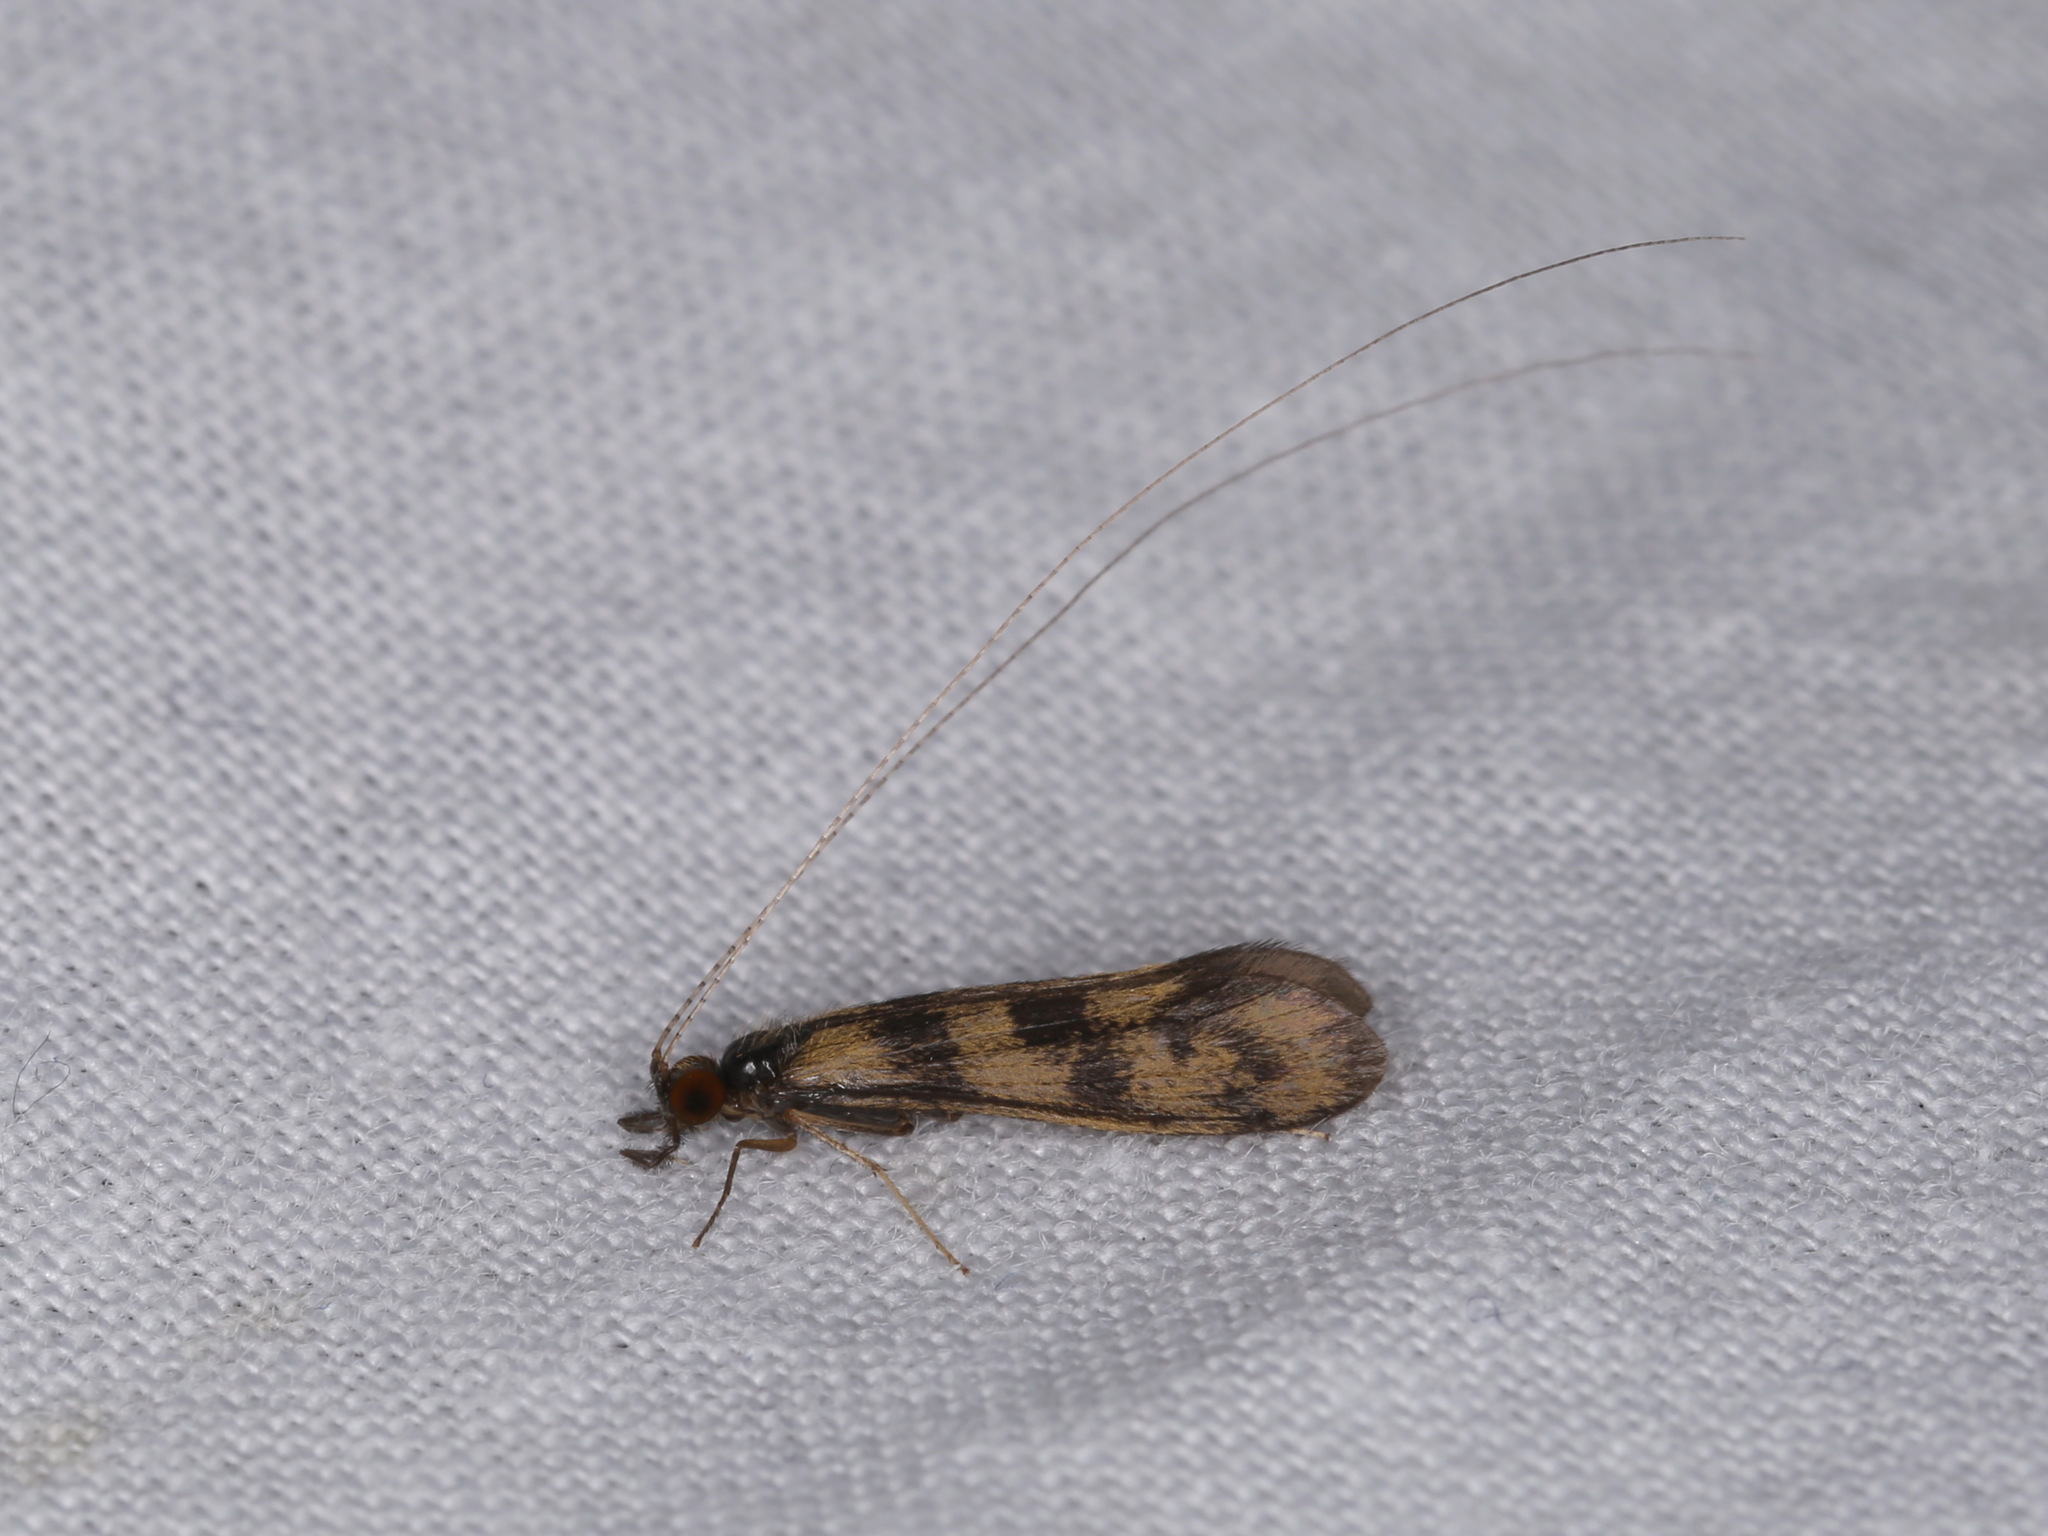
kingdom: Animalia
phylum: Arthropoda
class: Insecta
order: Trichoptera
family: Leptoceridae
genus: Mystacides
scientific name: Mystacides longicornis
